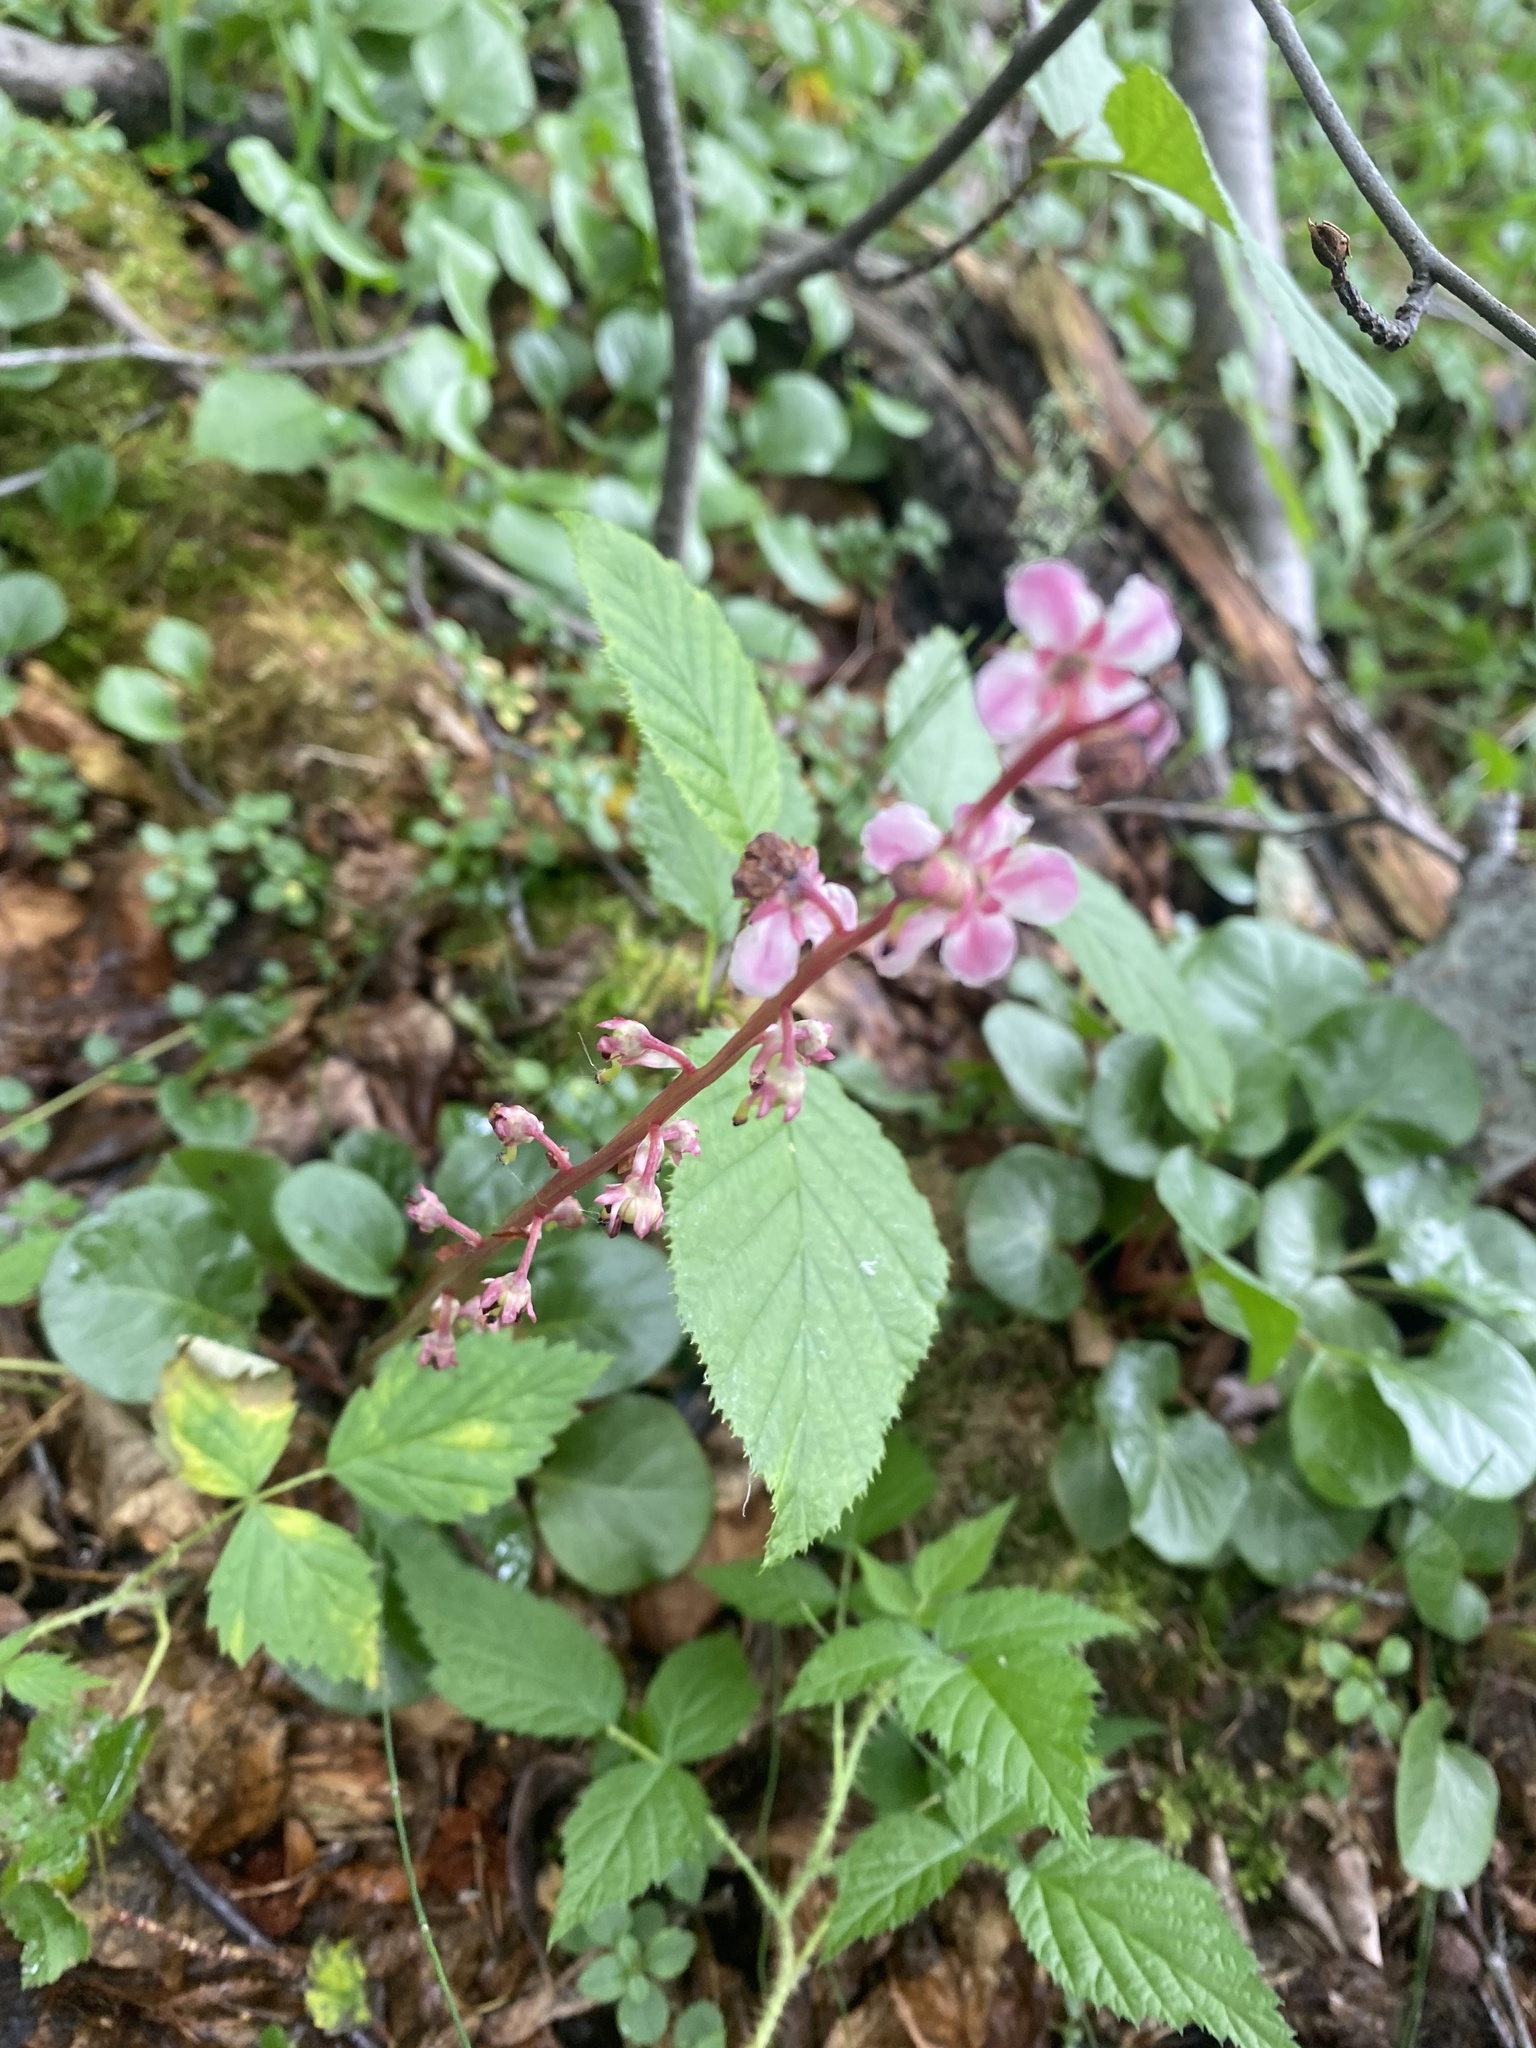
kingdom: Plantae
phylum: Tracheophyta
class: Magnoliopsida
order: Ericales
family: Ericaceae
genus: Pyrola
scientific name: Pyrola asarifolia
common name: Bog wintergreen
